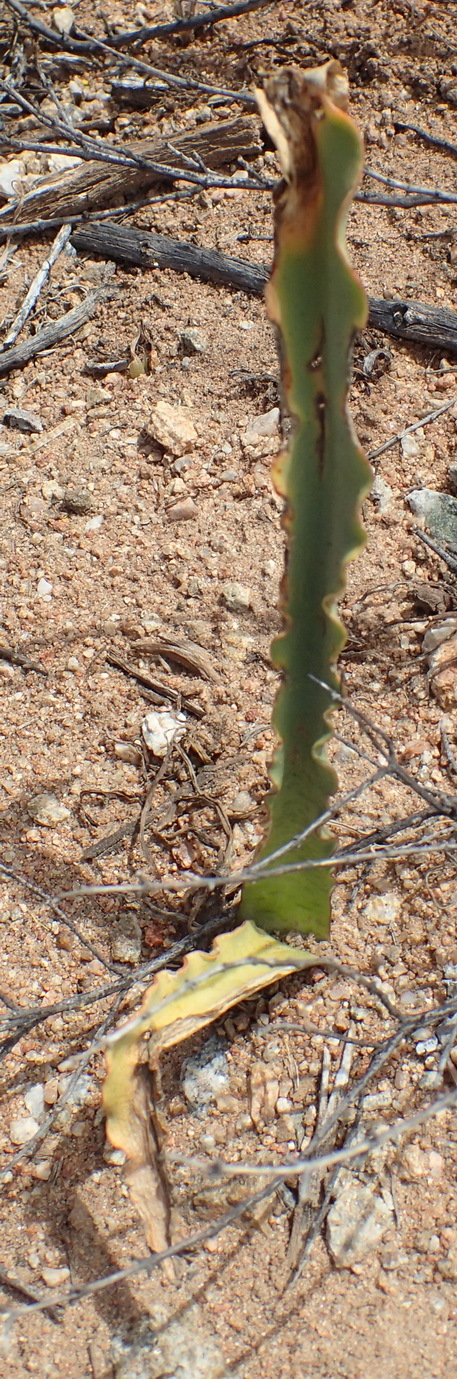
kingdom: Plantae
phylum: Tracheophyta
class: Liliopsida
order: Asparagales
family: Amaryllidaceae
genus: Haemanthus
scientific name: Haemanthus crispus
